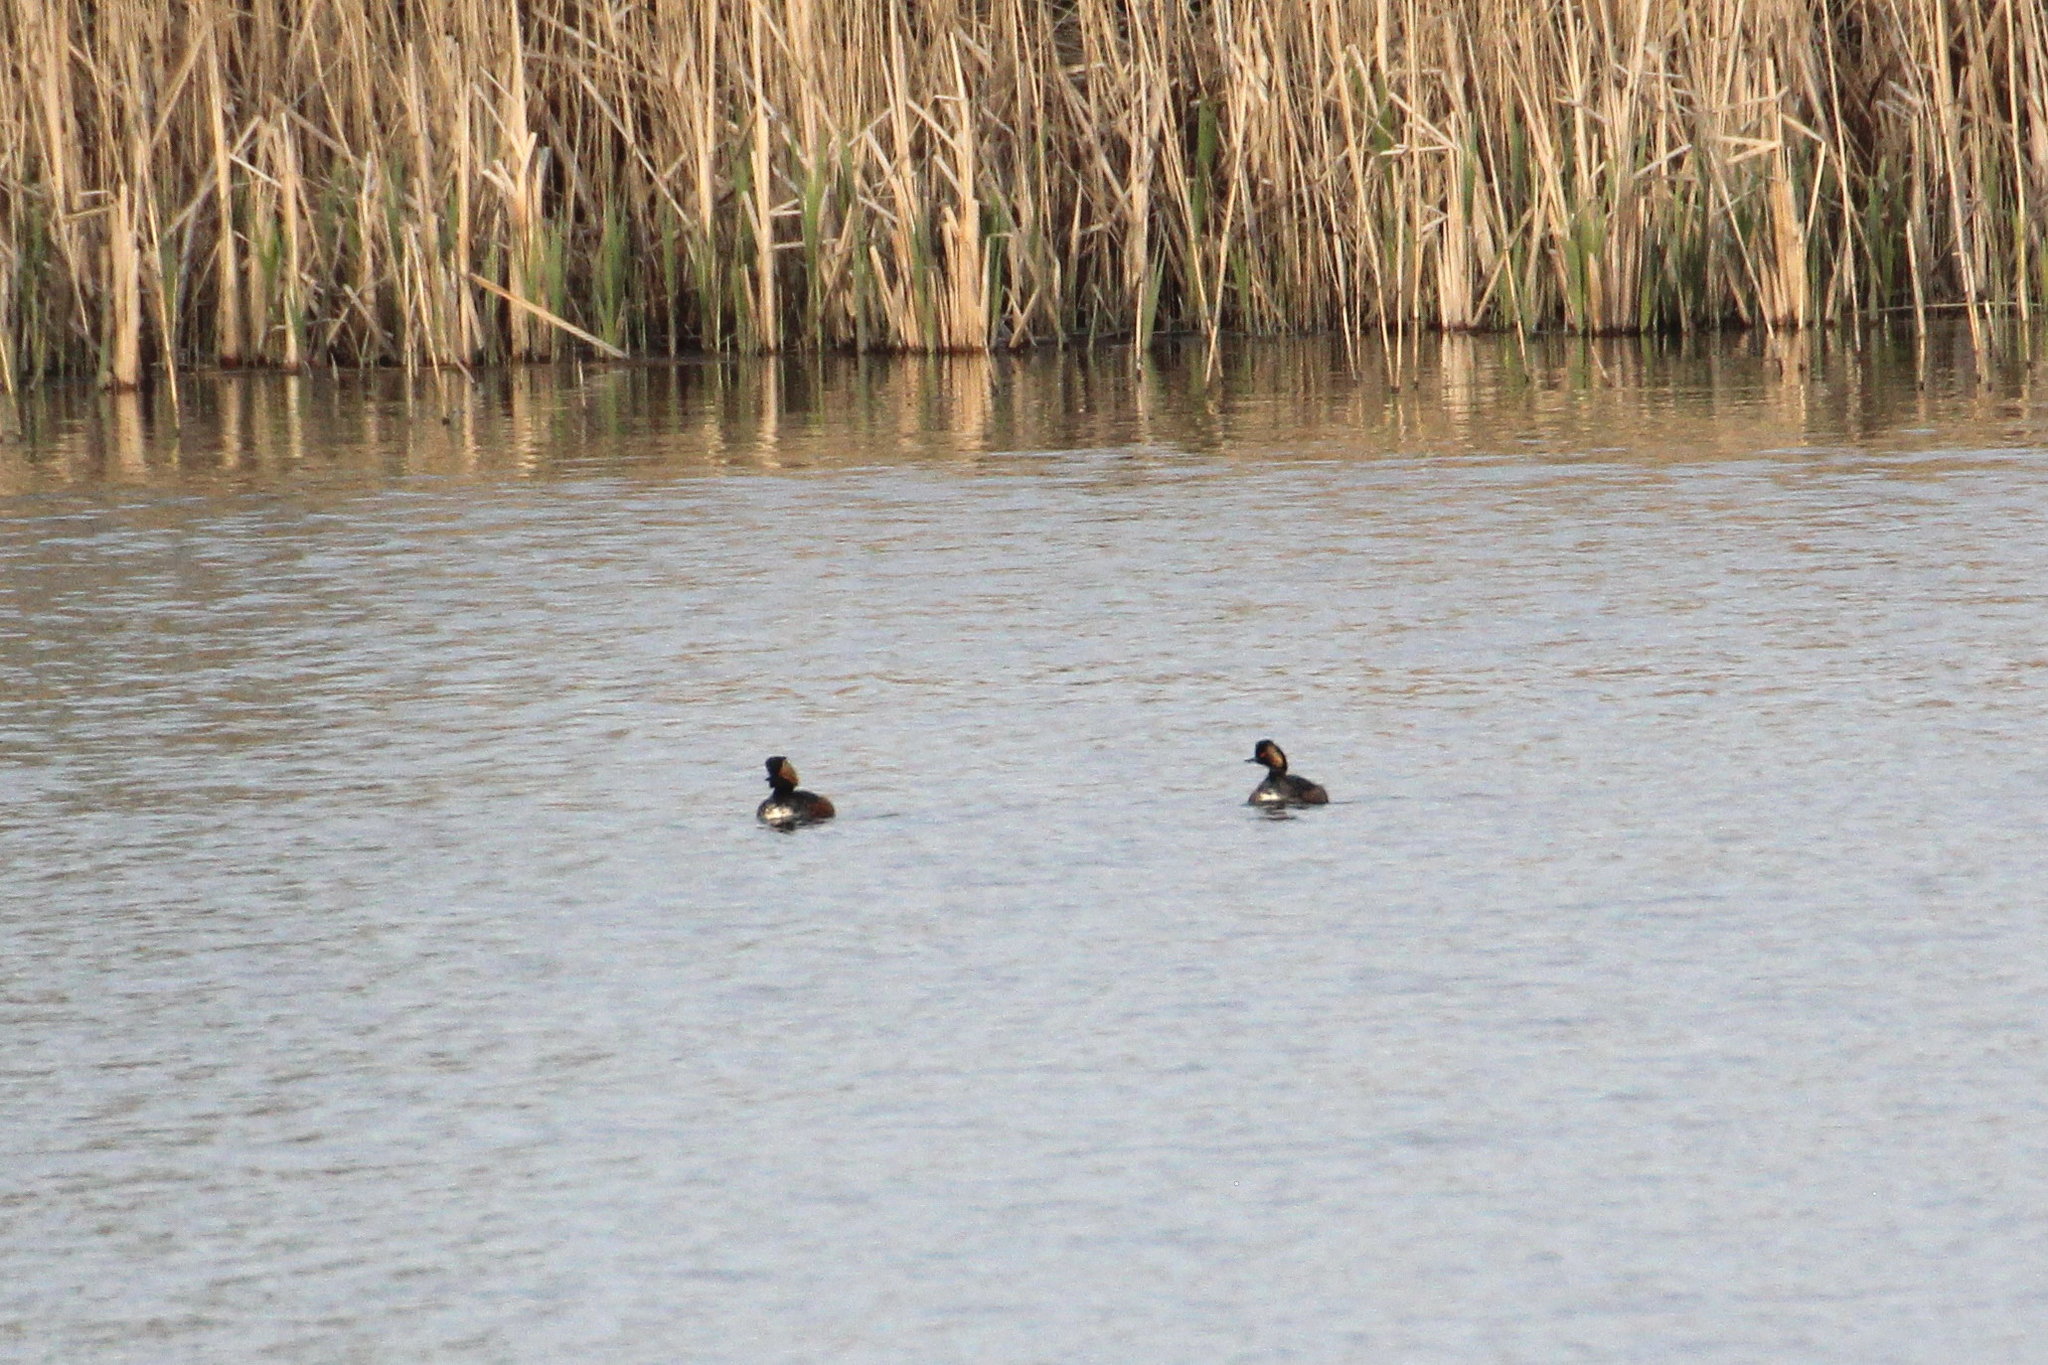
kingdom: Animalia
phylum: Chordata
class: Aves
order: Podicipediformes
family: Podicipedidae
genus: Podiceps
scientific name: Podiceps nigricollis
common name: Black-necked grebe
